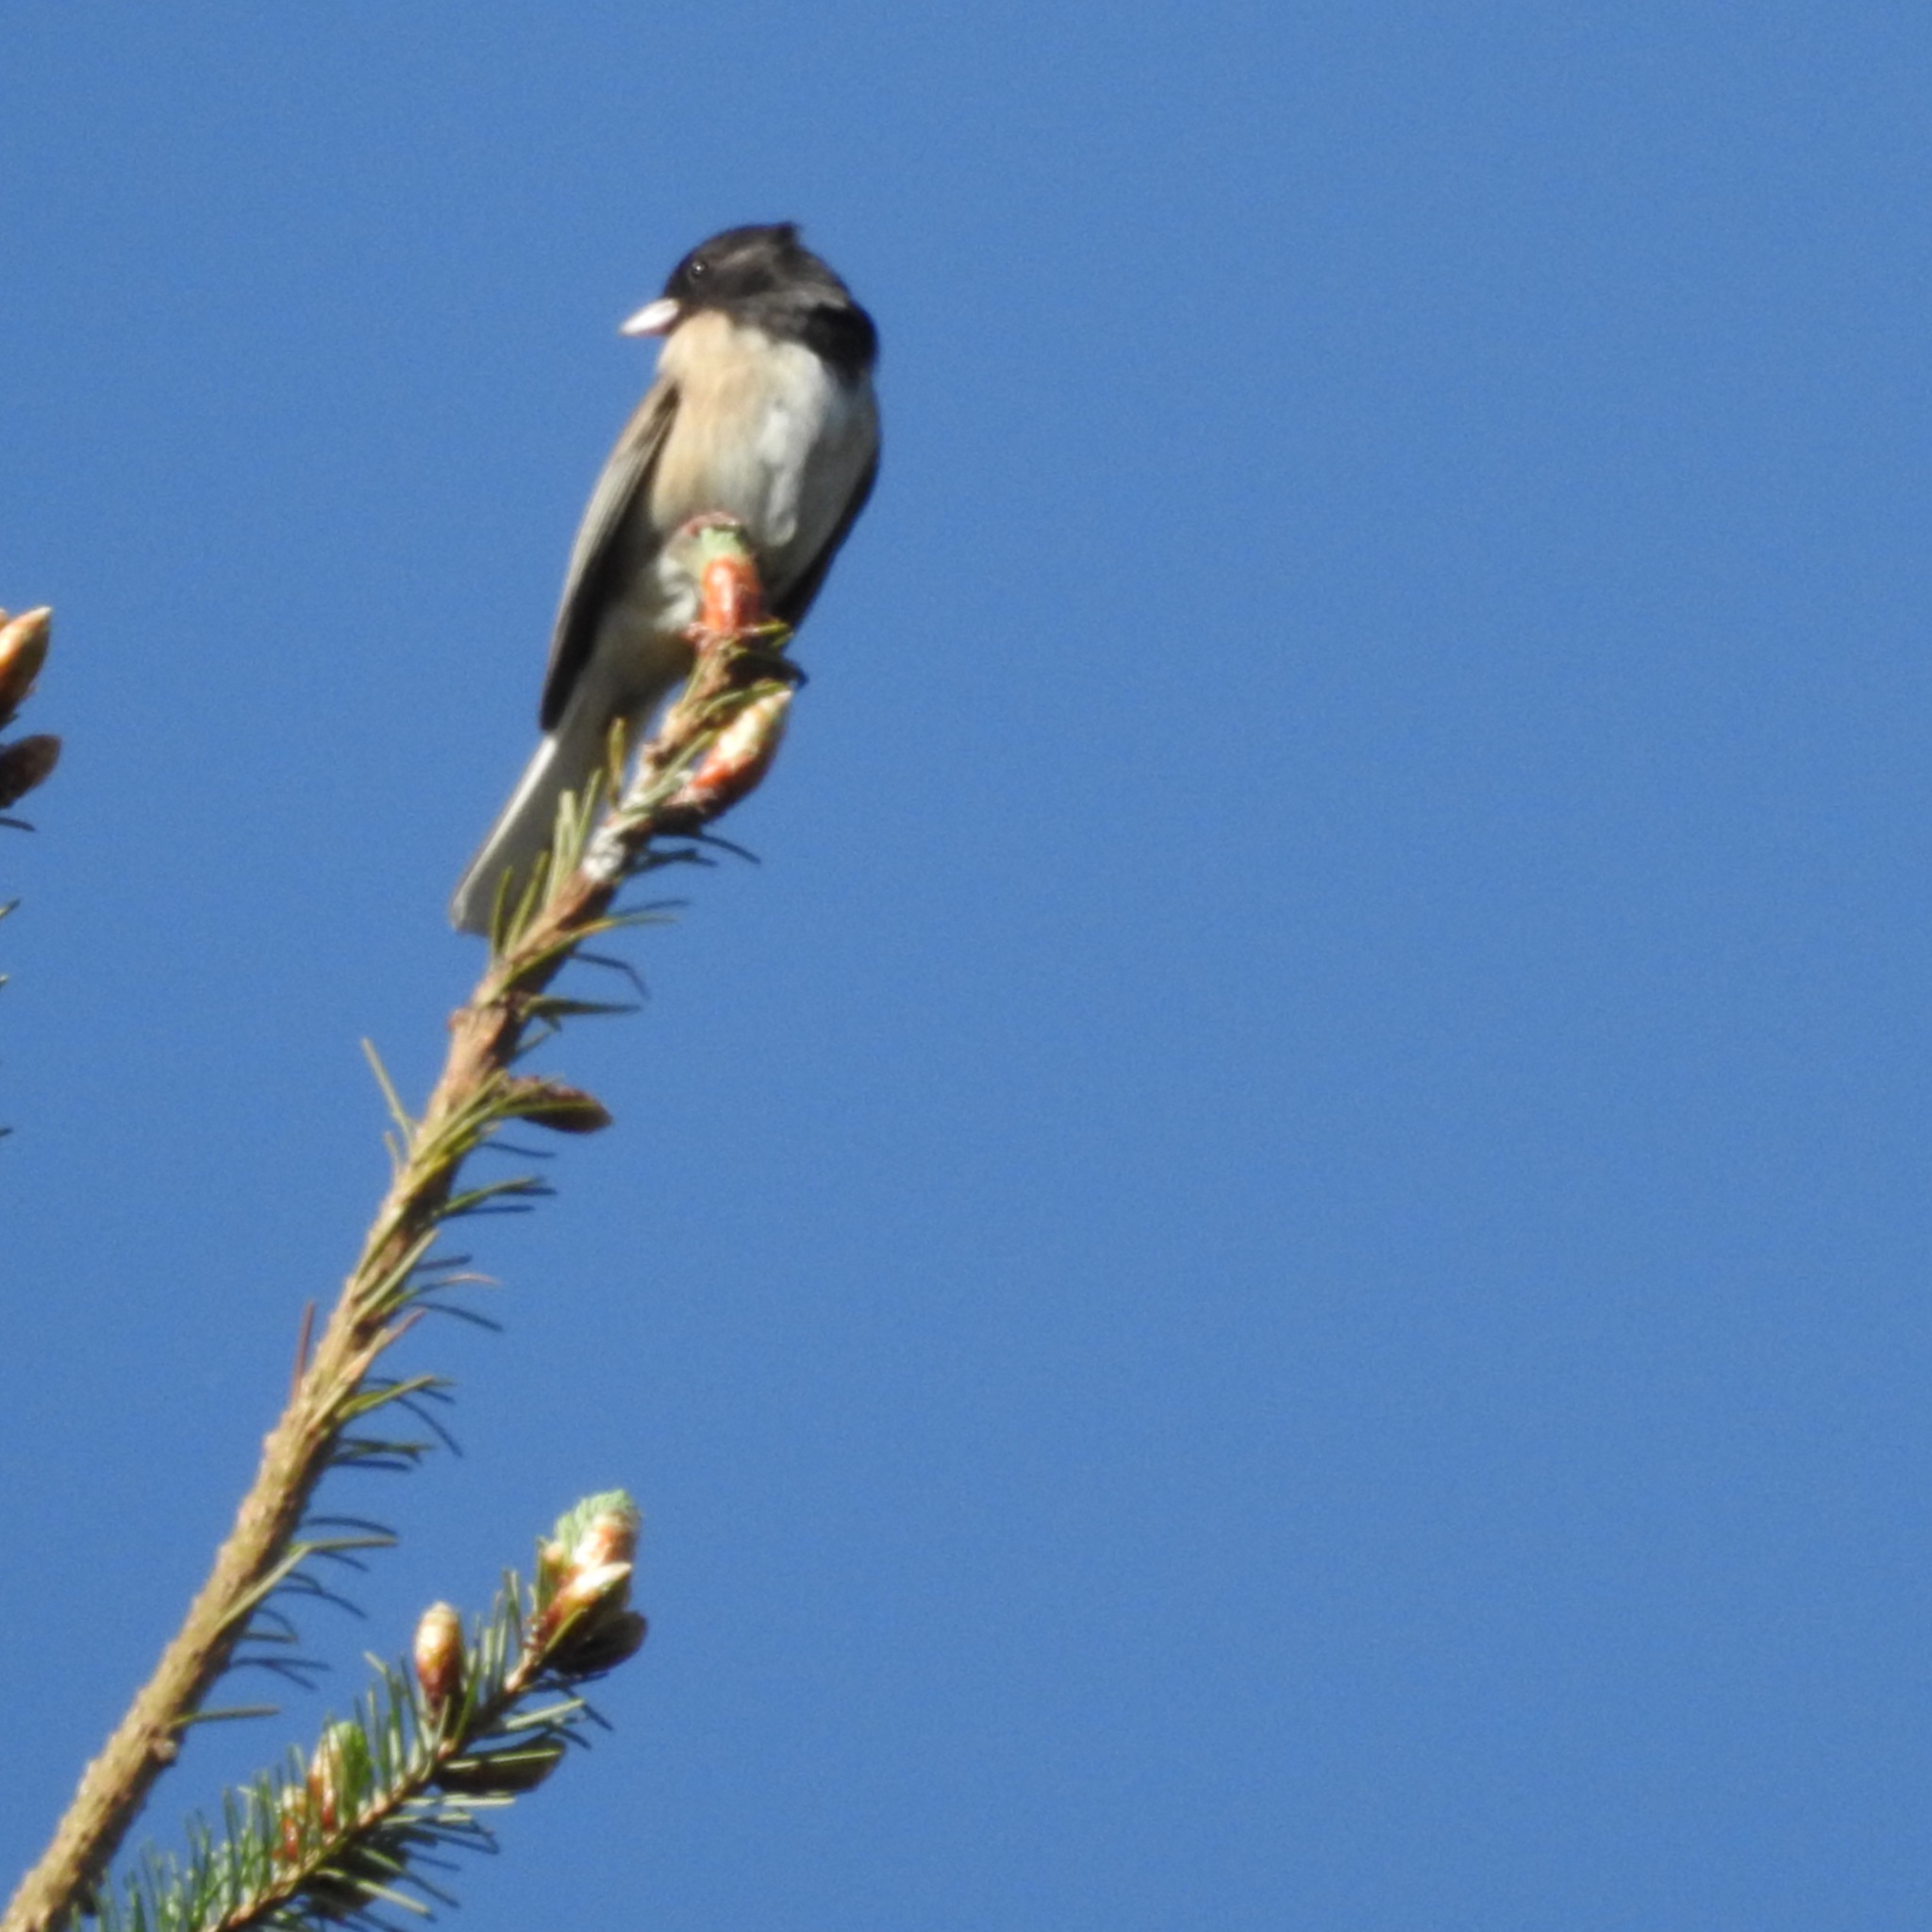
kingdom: Animalia
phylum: Chordata
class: Aves
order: Passeriformes
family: Passerellidae
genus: Junco
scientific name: Junco hyemalis
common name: Dark-eyed junco
